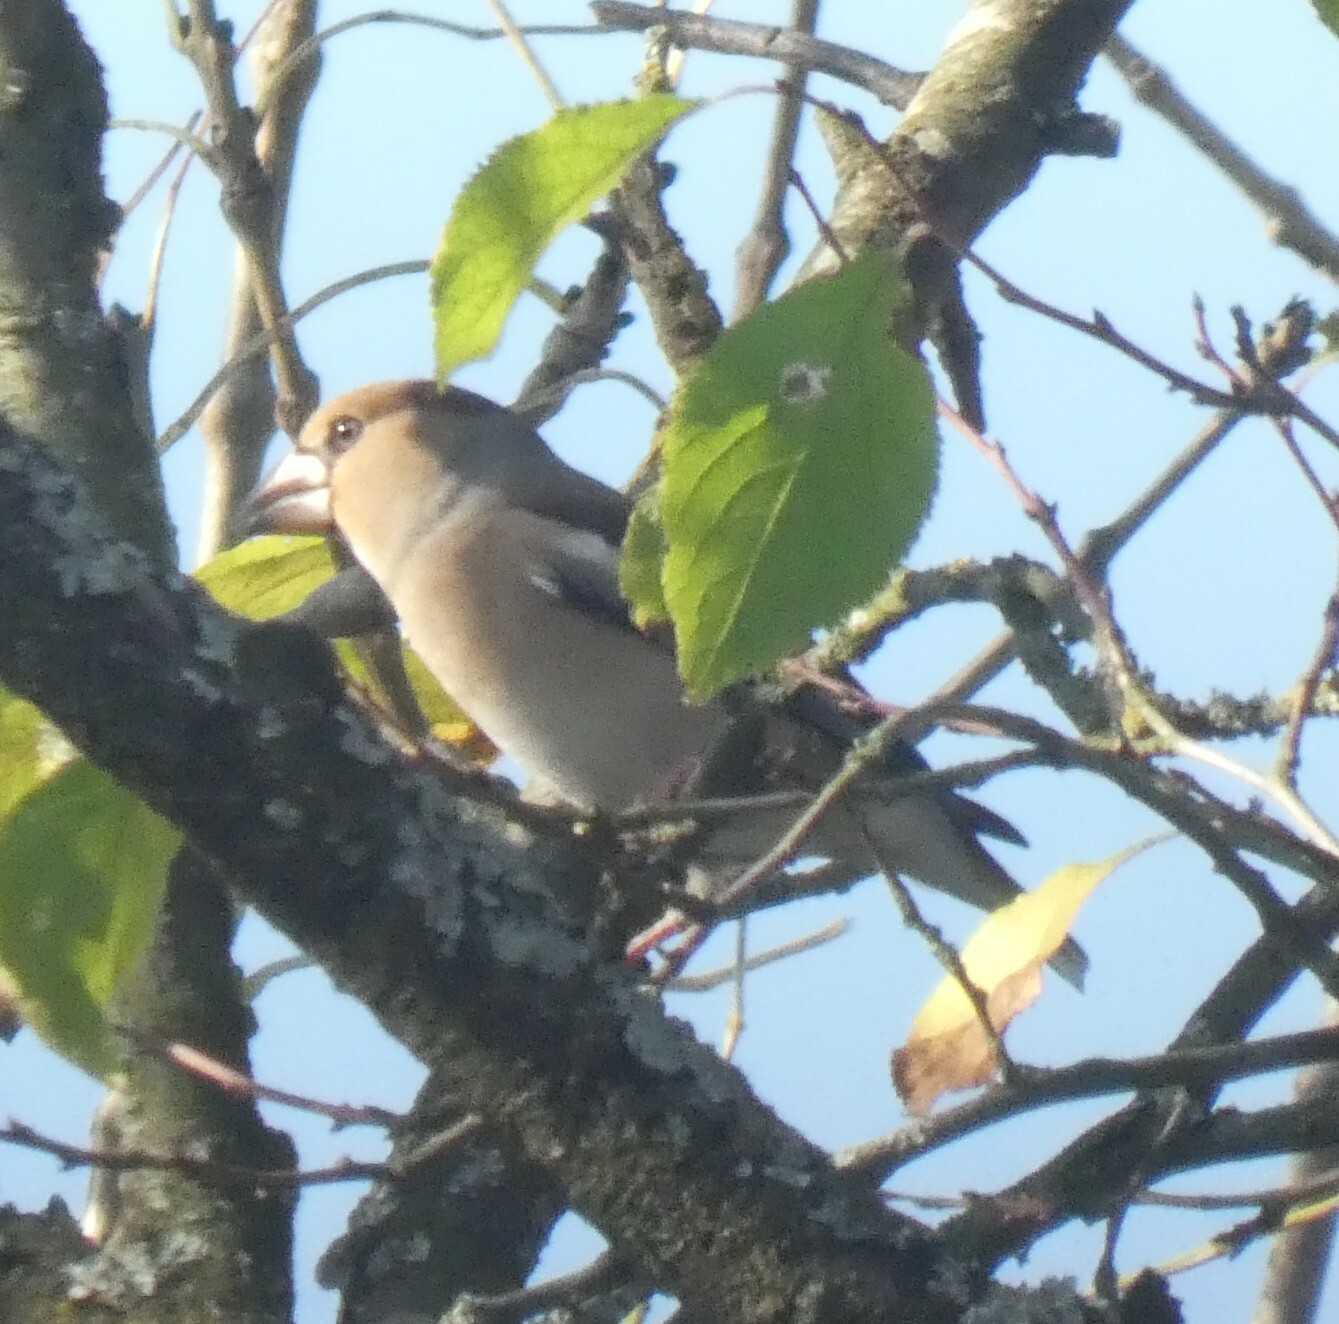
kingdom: Animalia
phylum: Chordata
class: Aves
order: Passeriformes
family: Fringillidae
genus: Coccothraustes
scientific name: Coccothraustes coccothraustes
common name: Hawfinch
